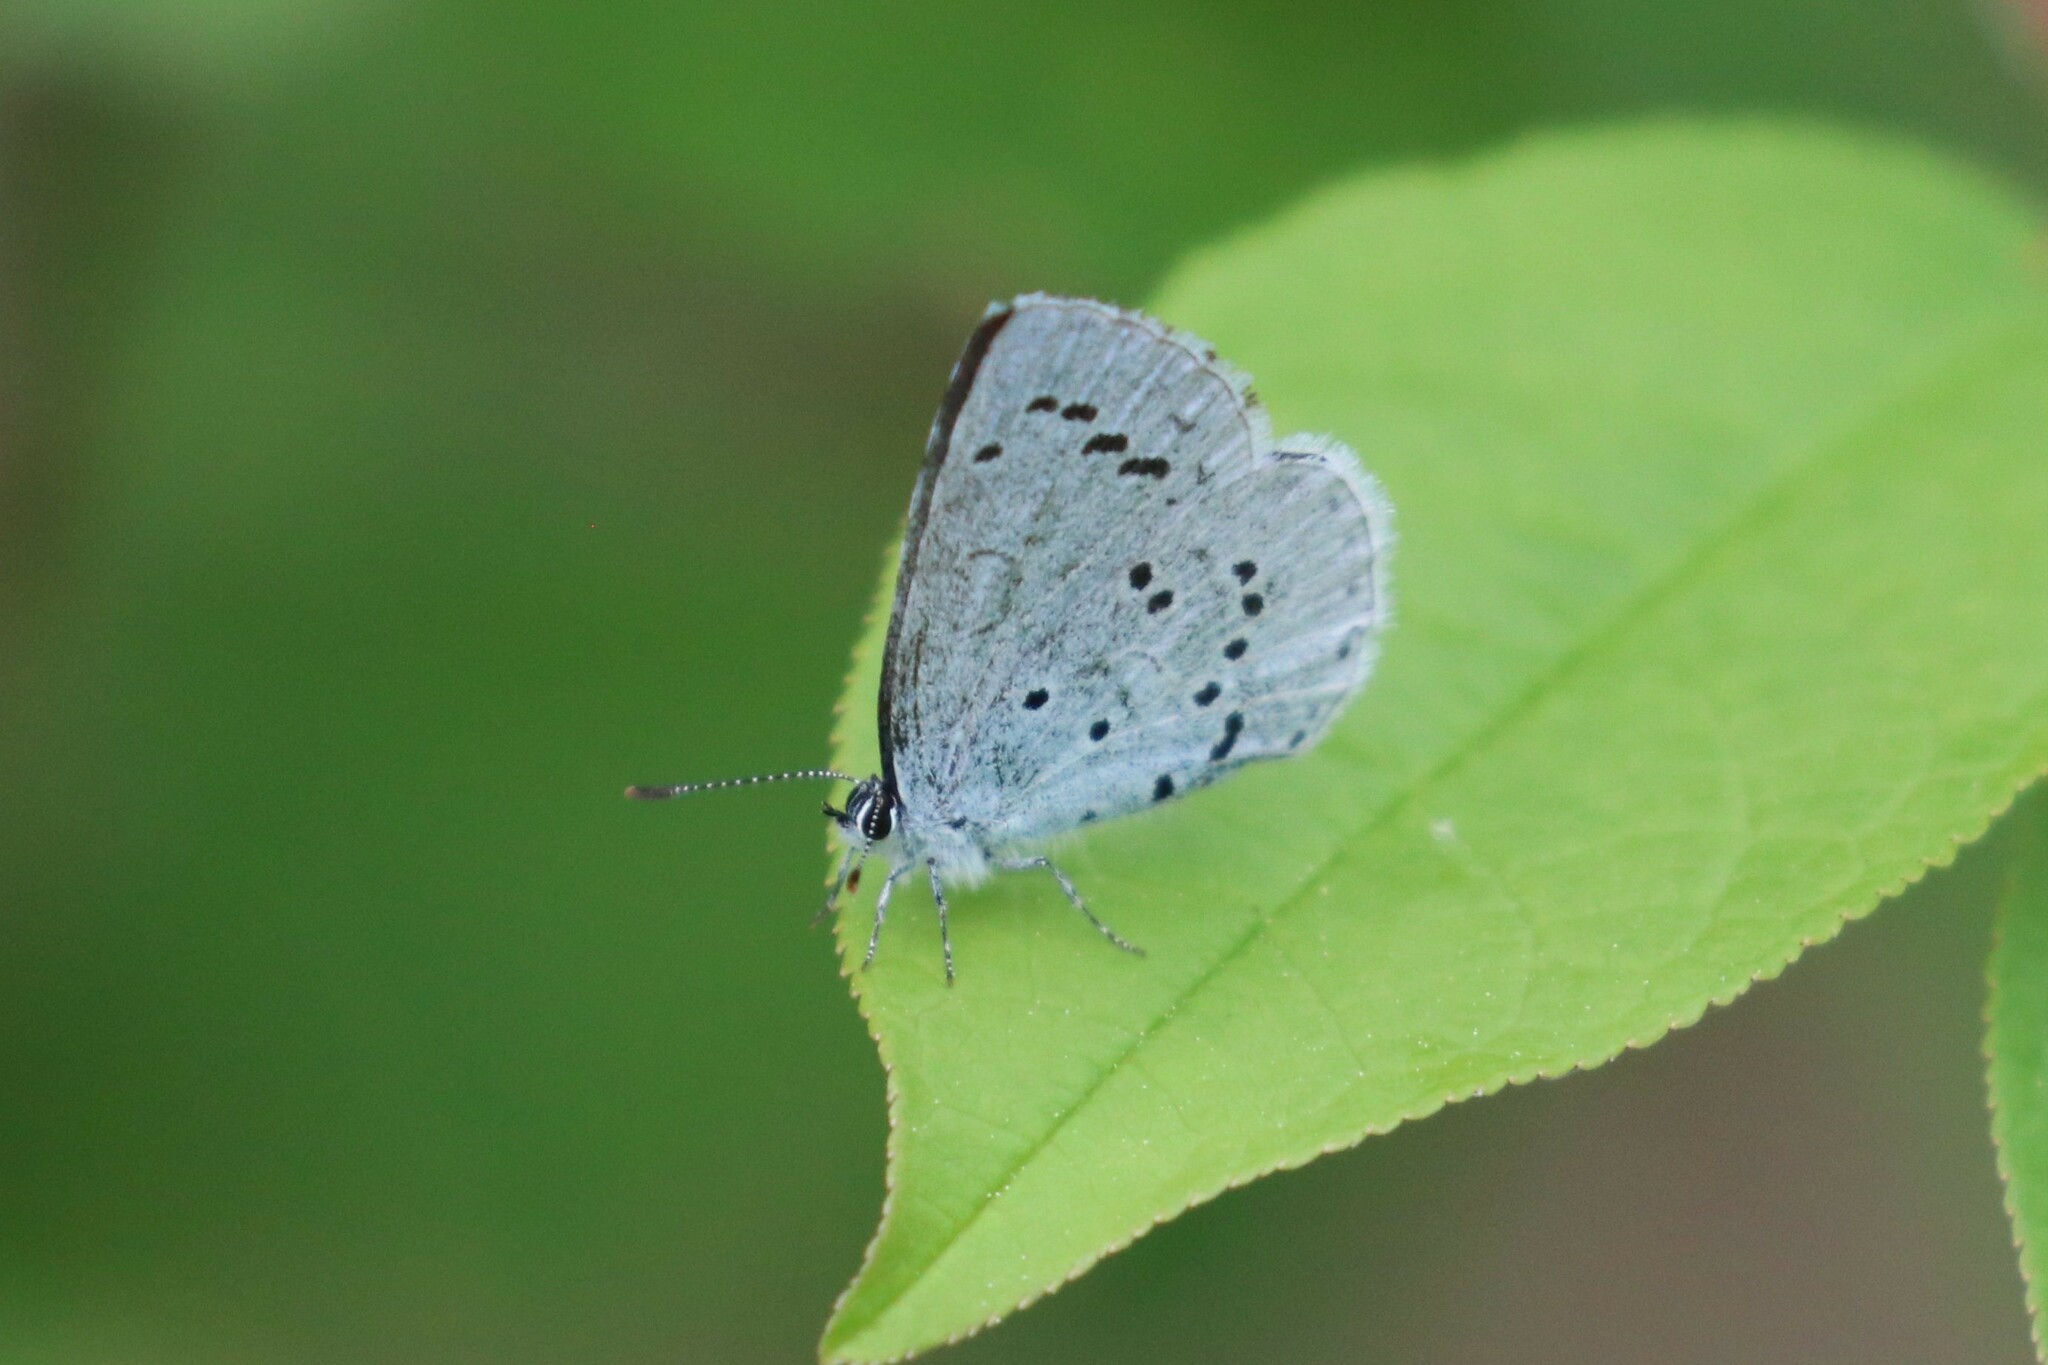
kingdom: Animalia
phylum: Arthropoda
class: Insecta
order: Lepidoptera
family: Lycaenidae
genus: Celastrina
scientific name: Celastrina argiolus
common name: Holly blue
